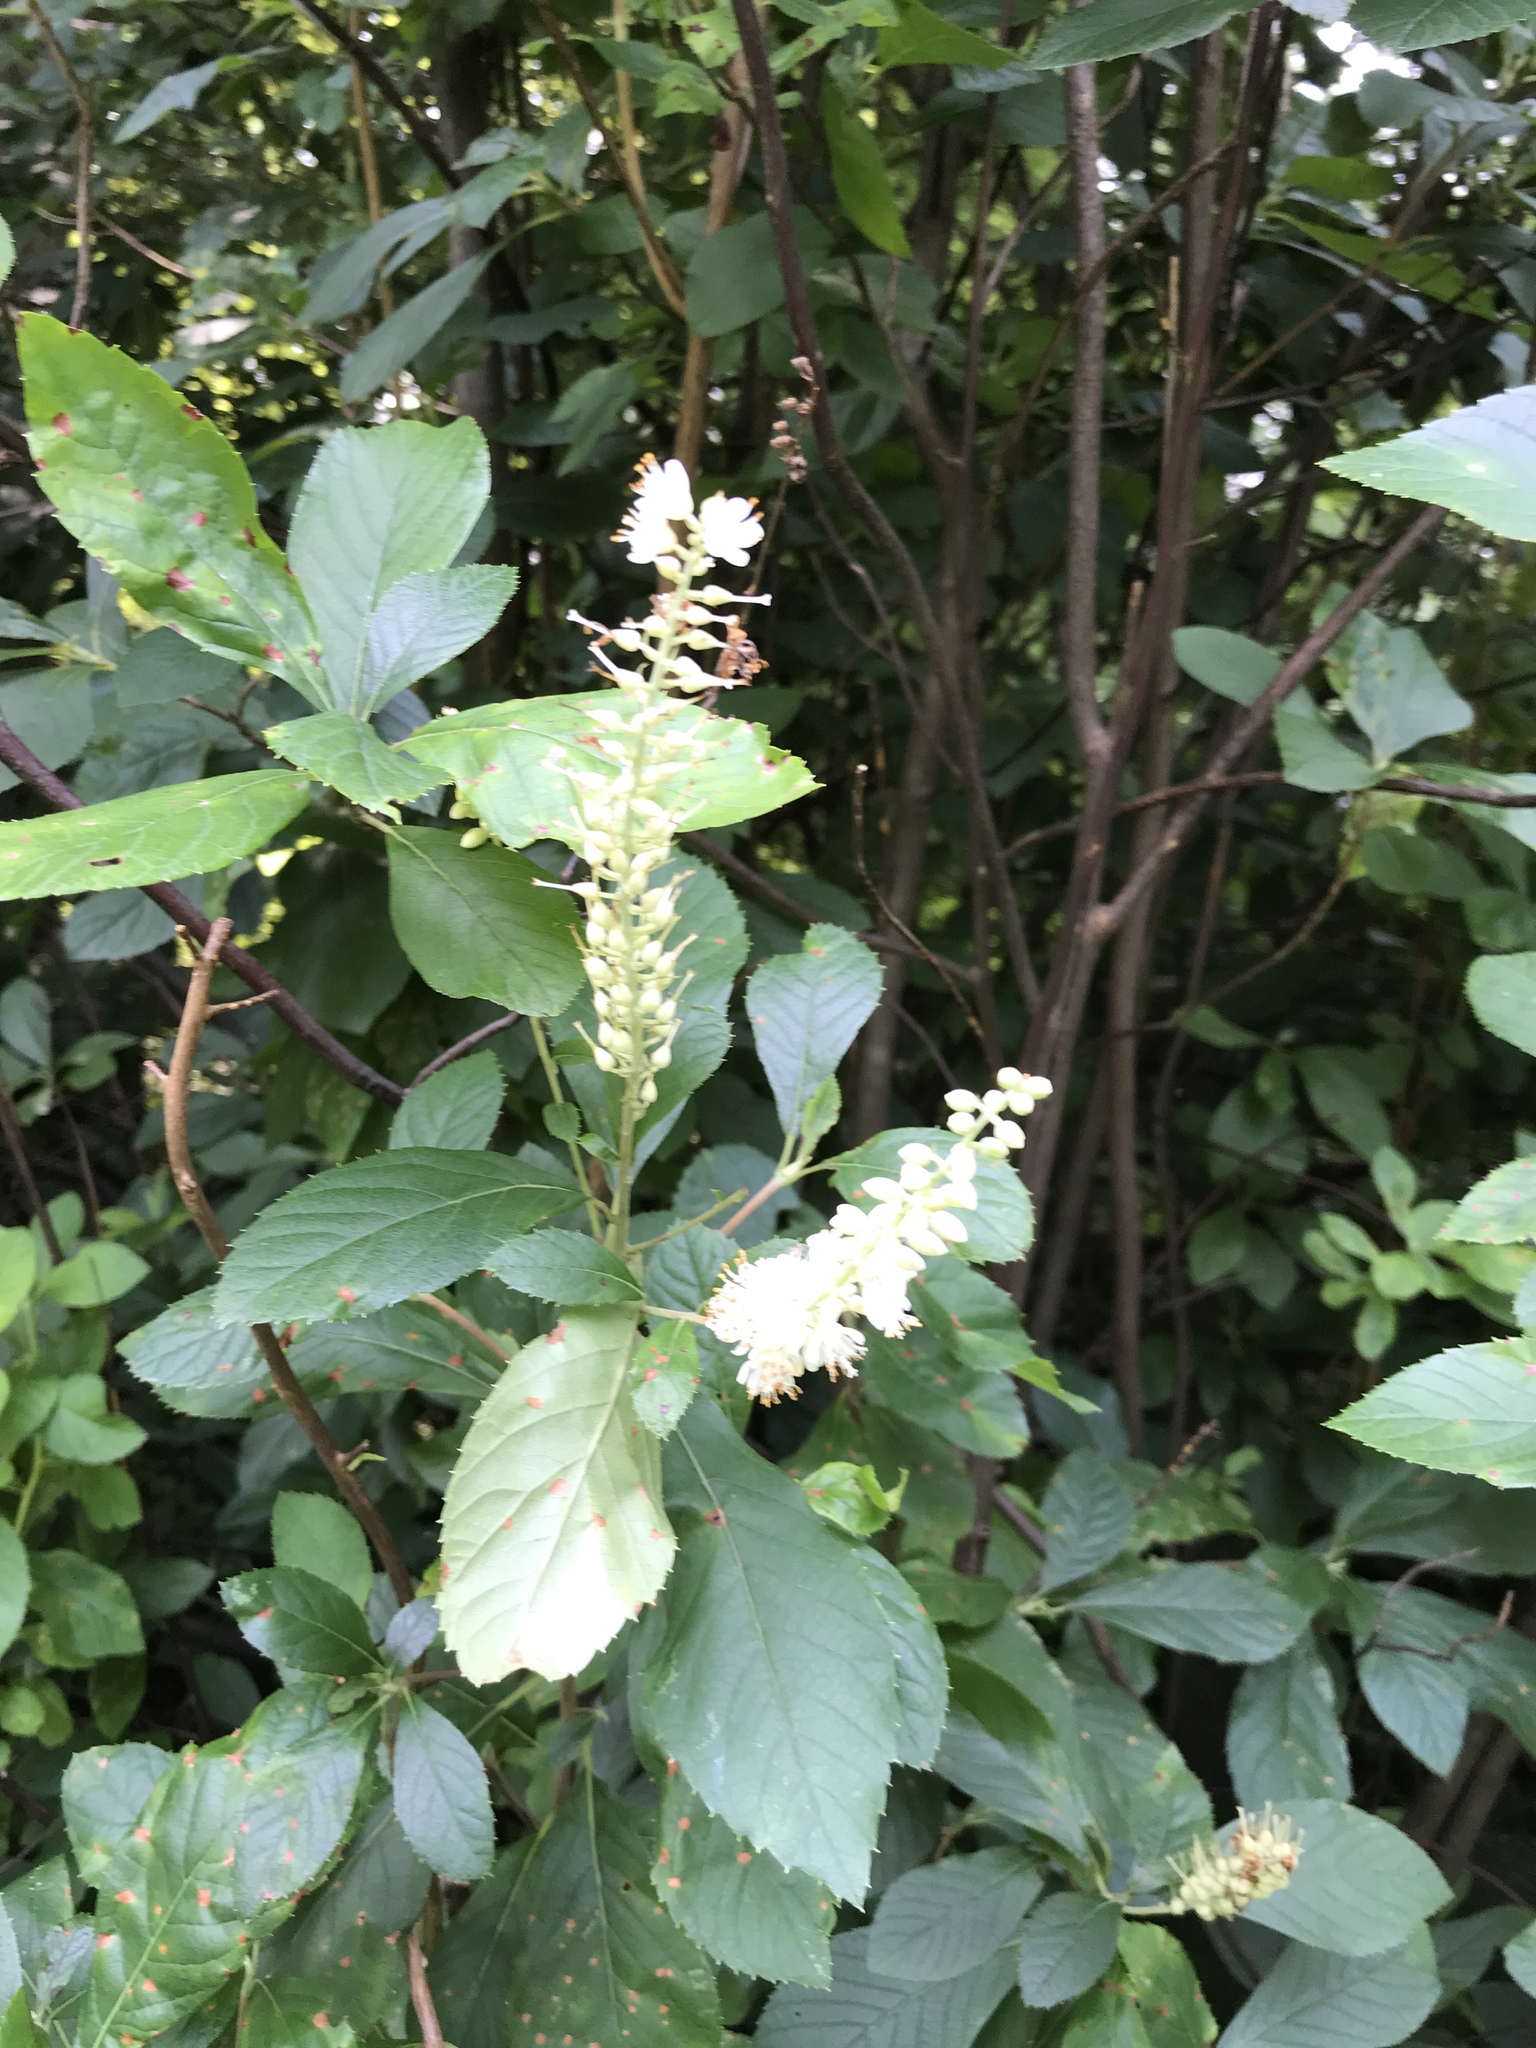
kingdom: Plantae
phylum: Tracheophyta
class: Magnoliopsida
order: Ericales
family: Clethraceae
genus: Clethra
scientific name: Clethra alnifolia
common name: Sweet pepperbush
